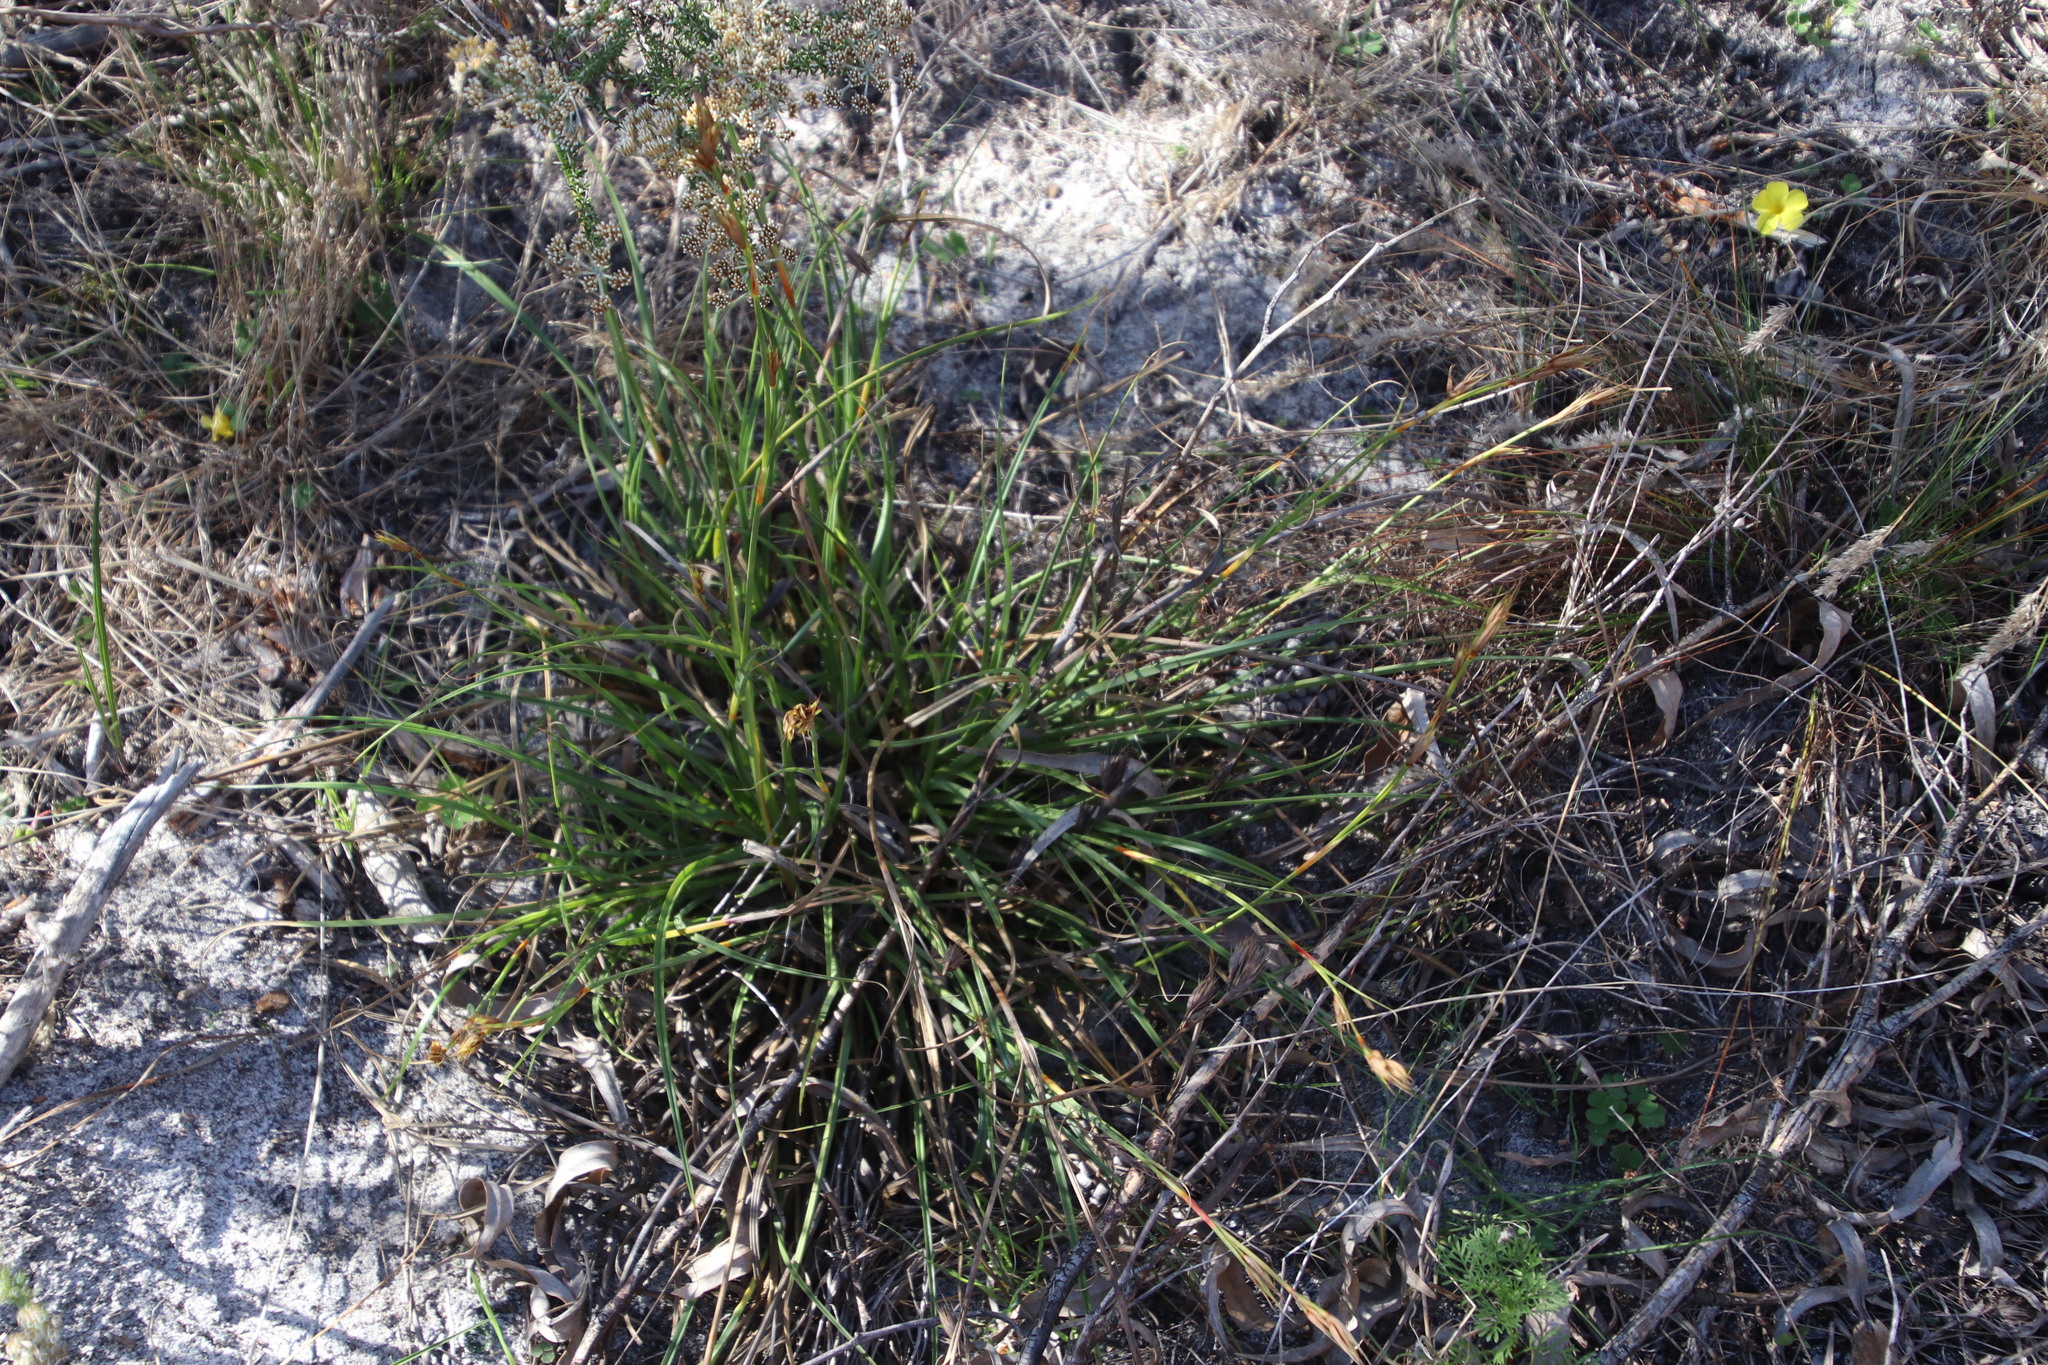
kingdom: Plantae
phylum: Tracheophyta
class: Liliopsida
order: Poales
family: Cyperaceae
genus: Tetraria
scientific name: Tetraria eximia
